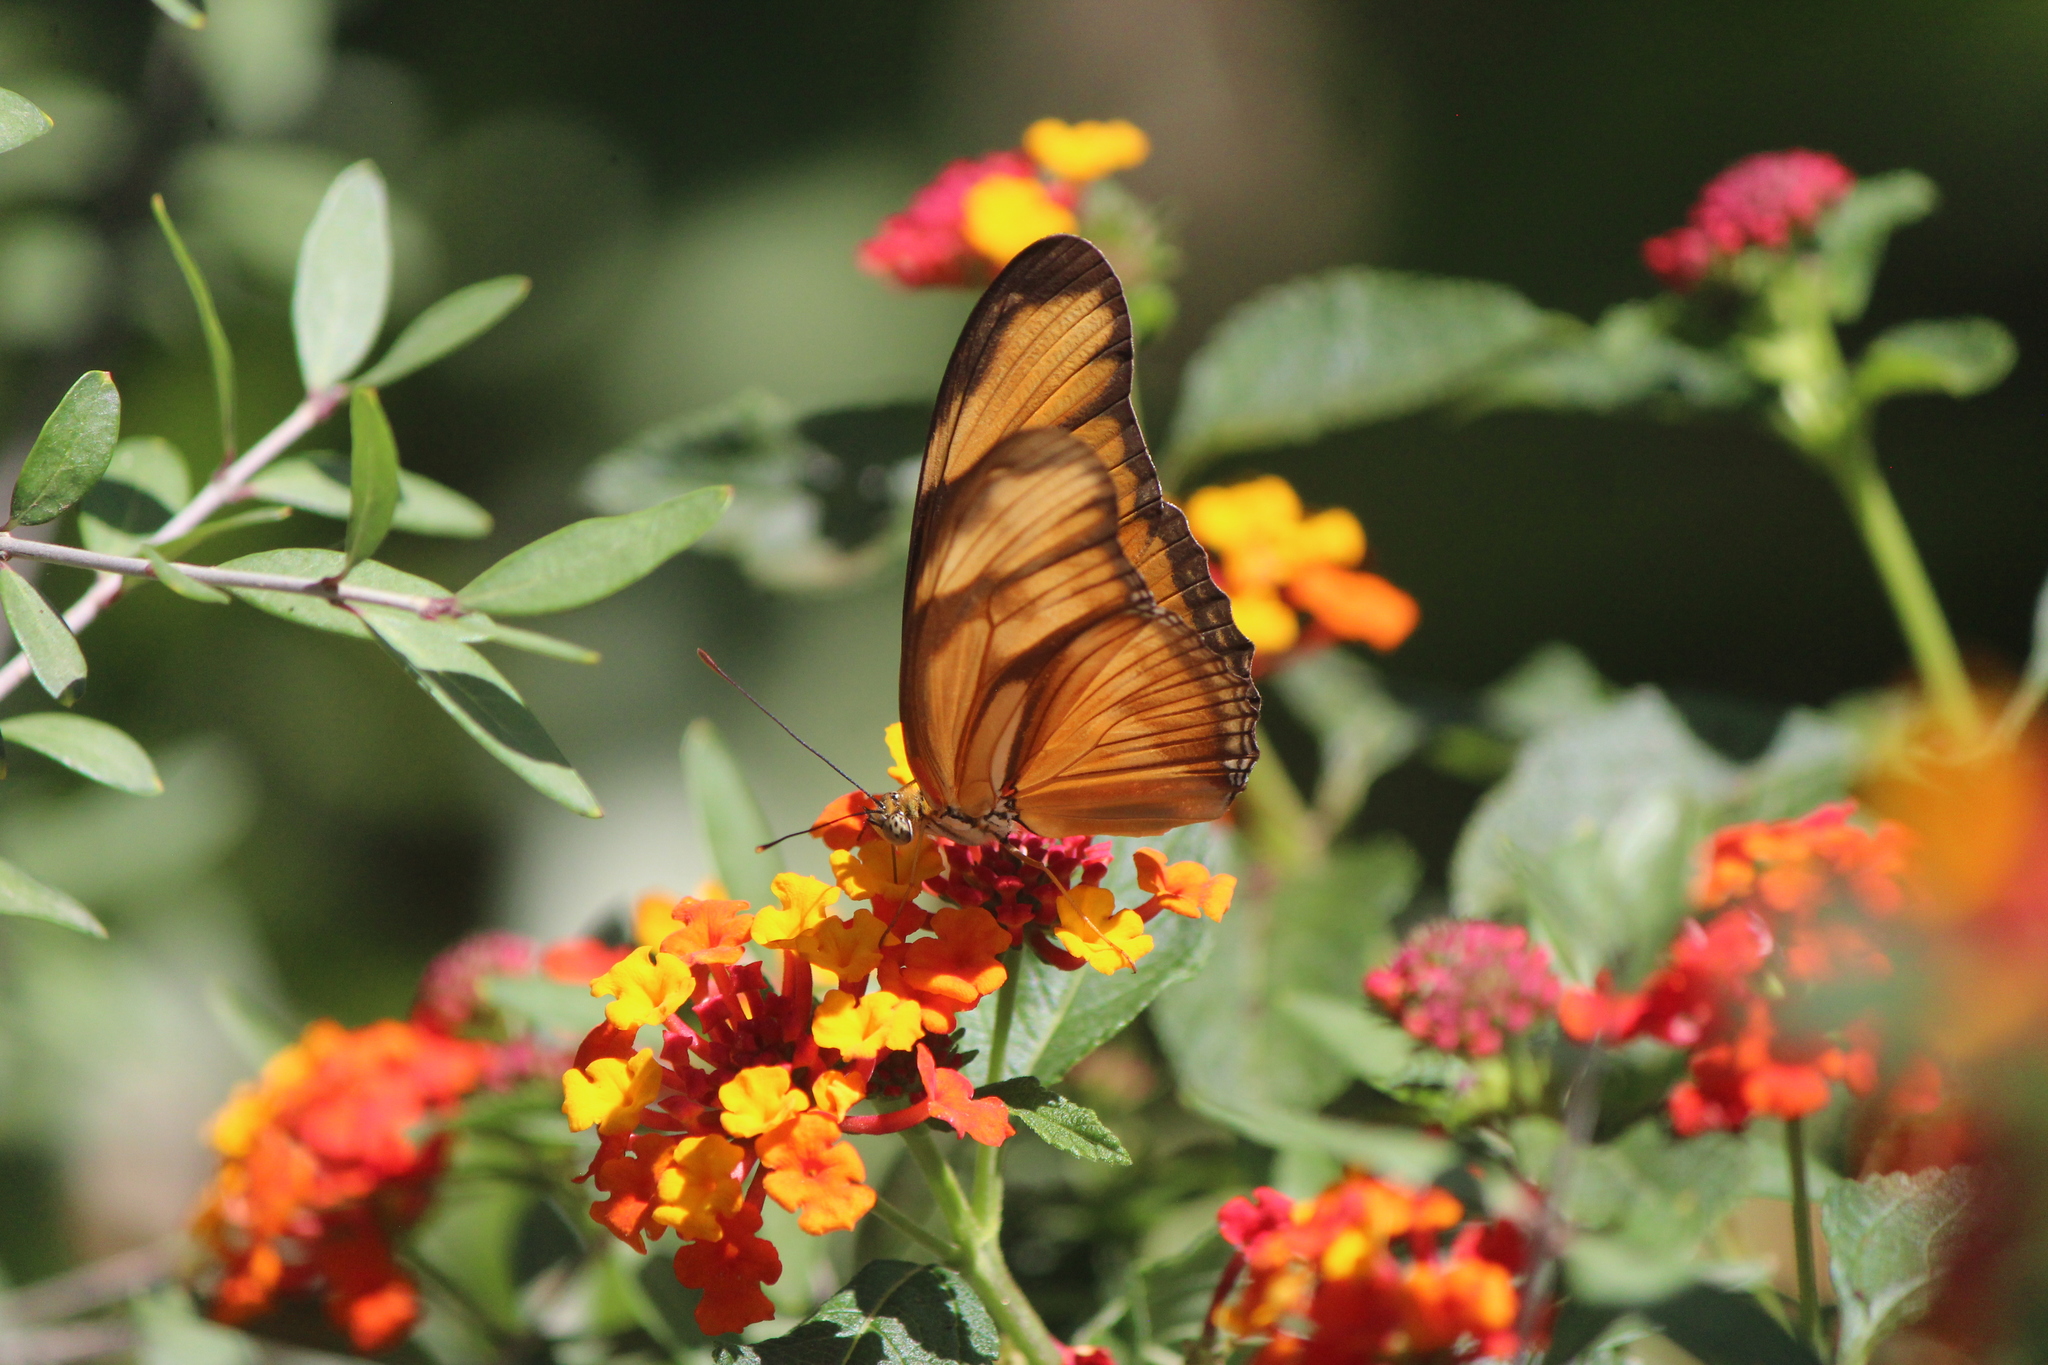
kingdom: Animalia
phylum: Arthropoda
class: Insecta
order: Lepidoptera
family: Nymphalidae
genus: Dryas
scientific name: Dryas iulia
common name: Flambeau
